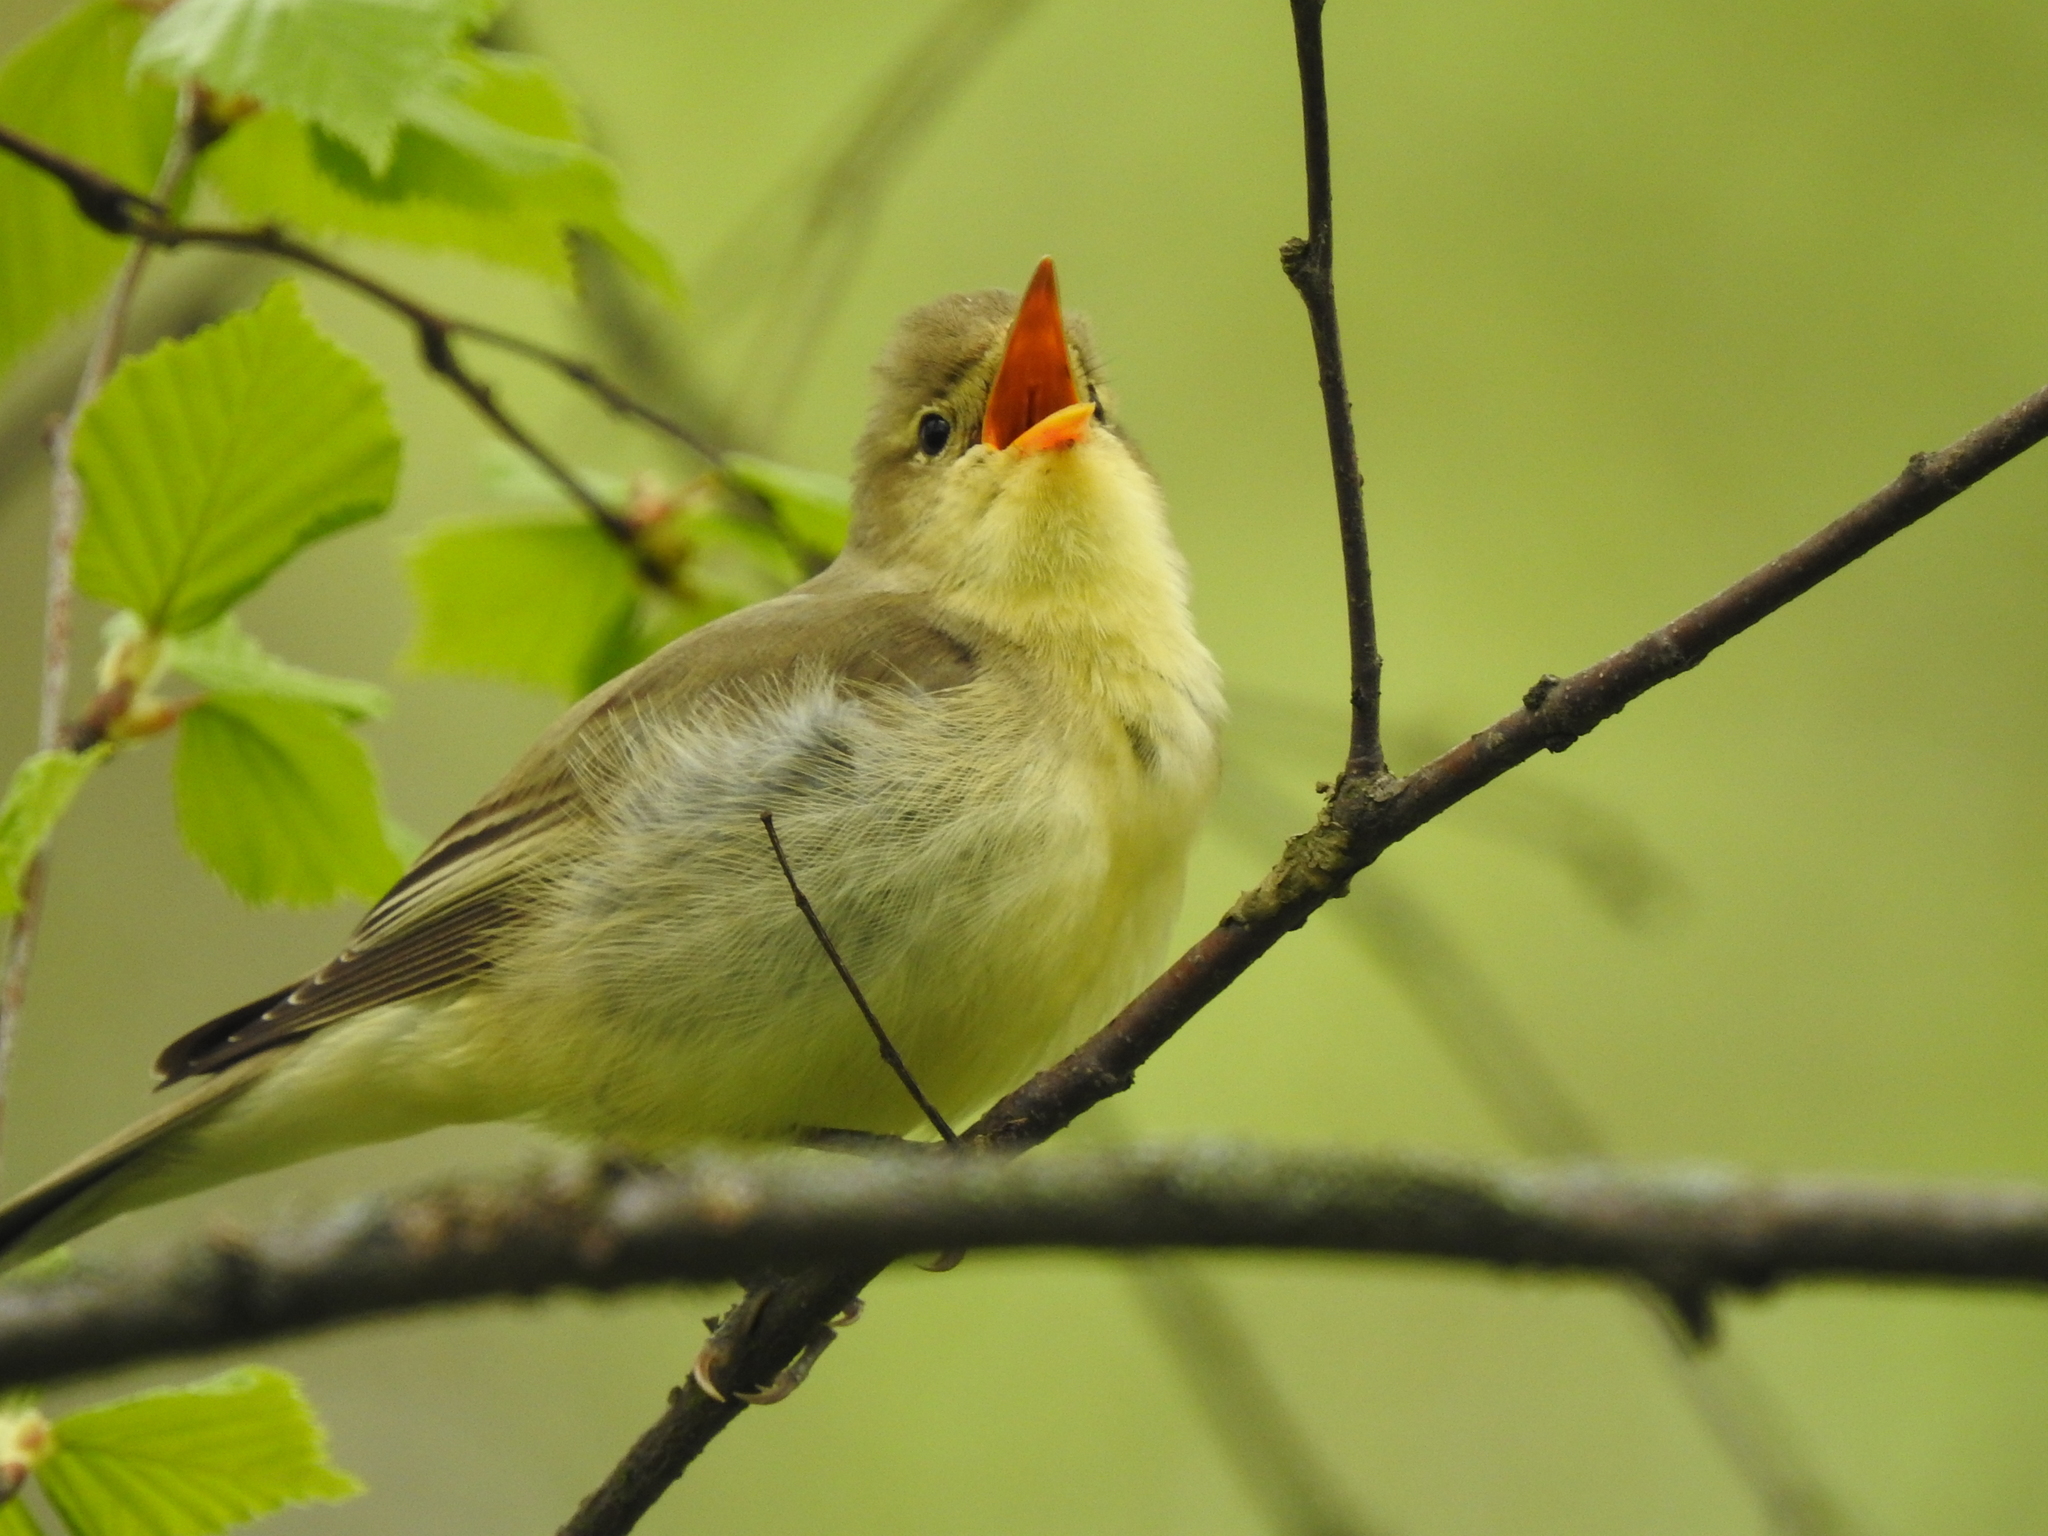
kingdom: Animalia
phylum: Chordata
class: Aves
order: Passeriformes
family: Acrocephalidae
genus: Hippolais
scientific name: Hippolais icterina
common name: Icterine warbler
